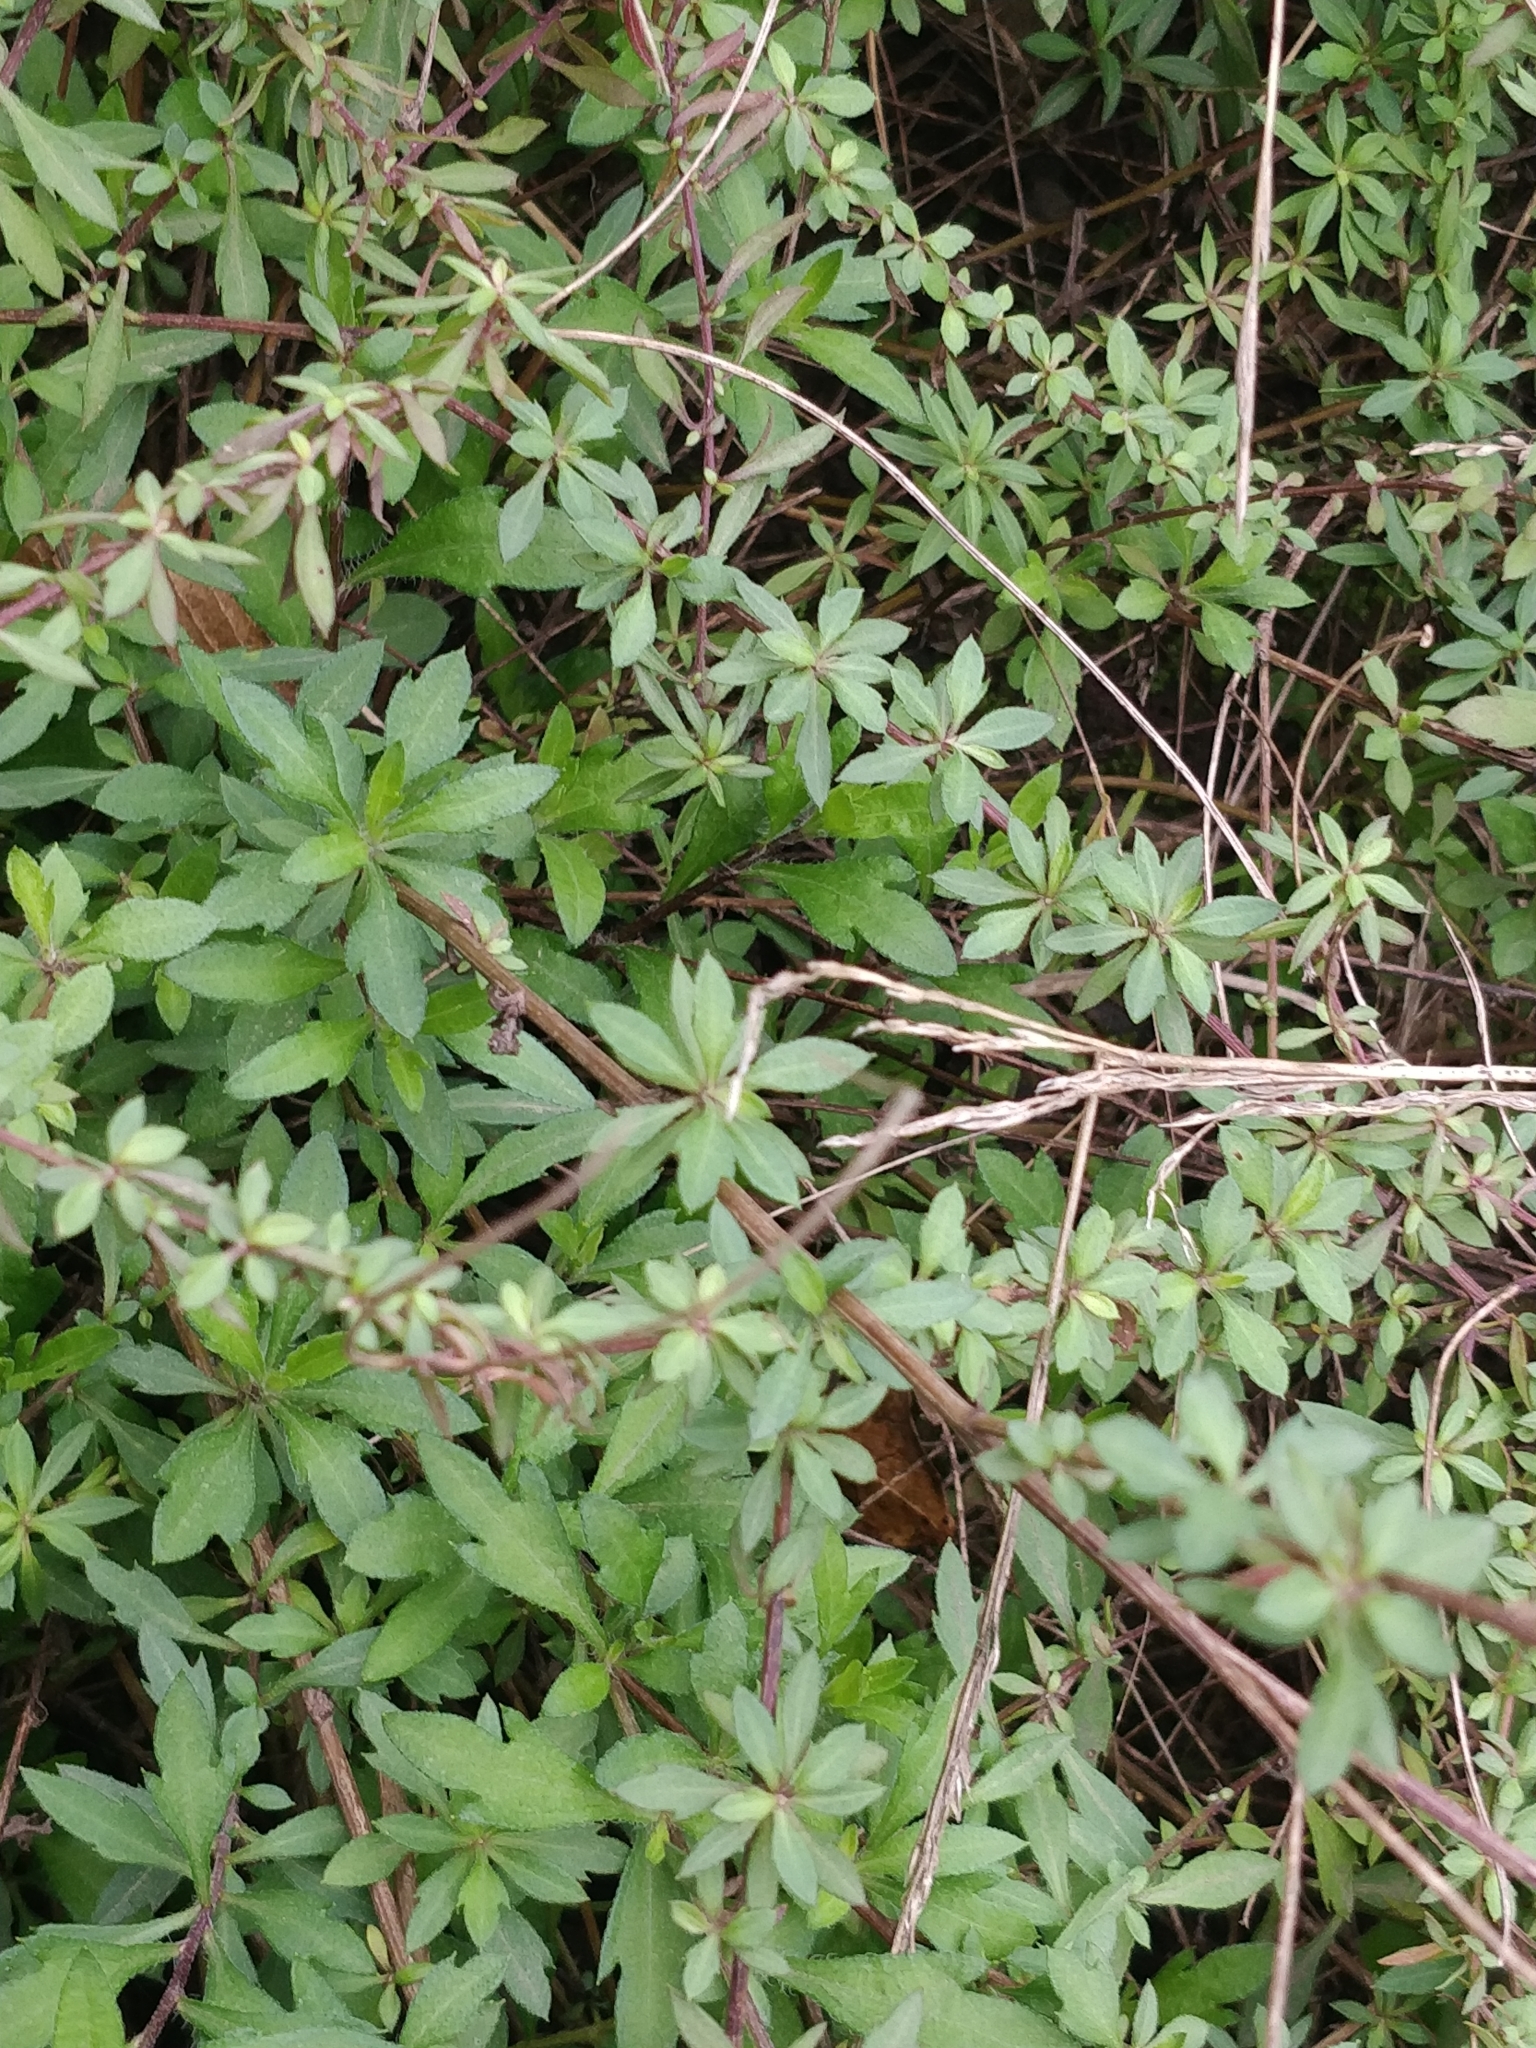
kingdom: Plantae
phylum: Tracheophyta
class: Magnoliopsida
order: Asterales
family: Asteraceae
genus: Erigeron
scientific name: Erigeron karvinskianus
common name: Mexican fleabane
